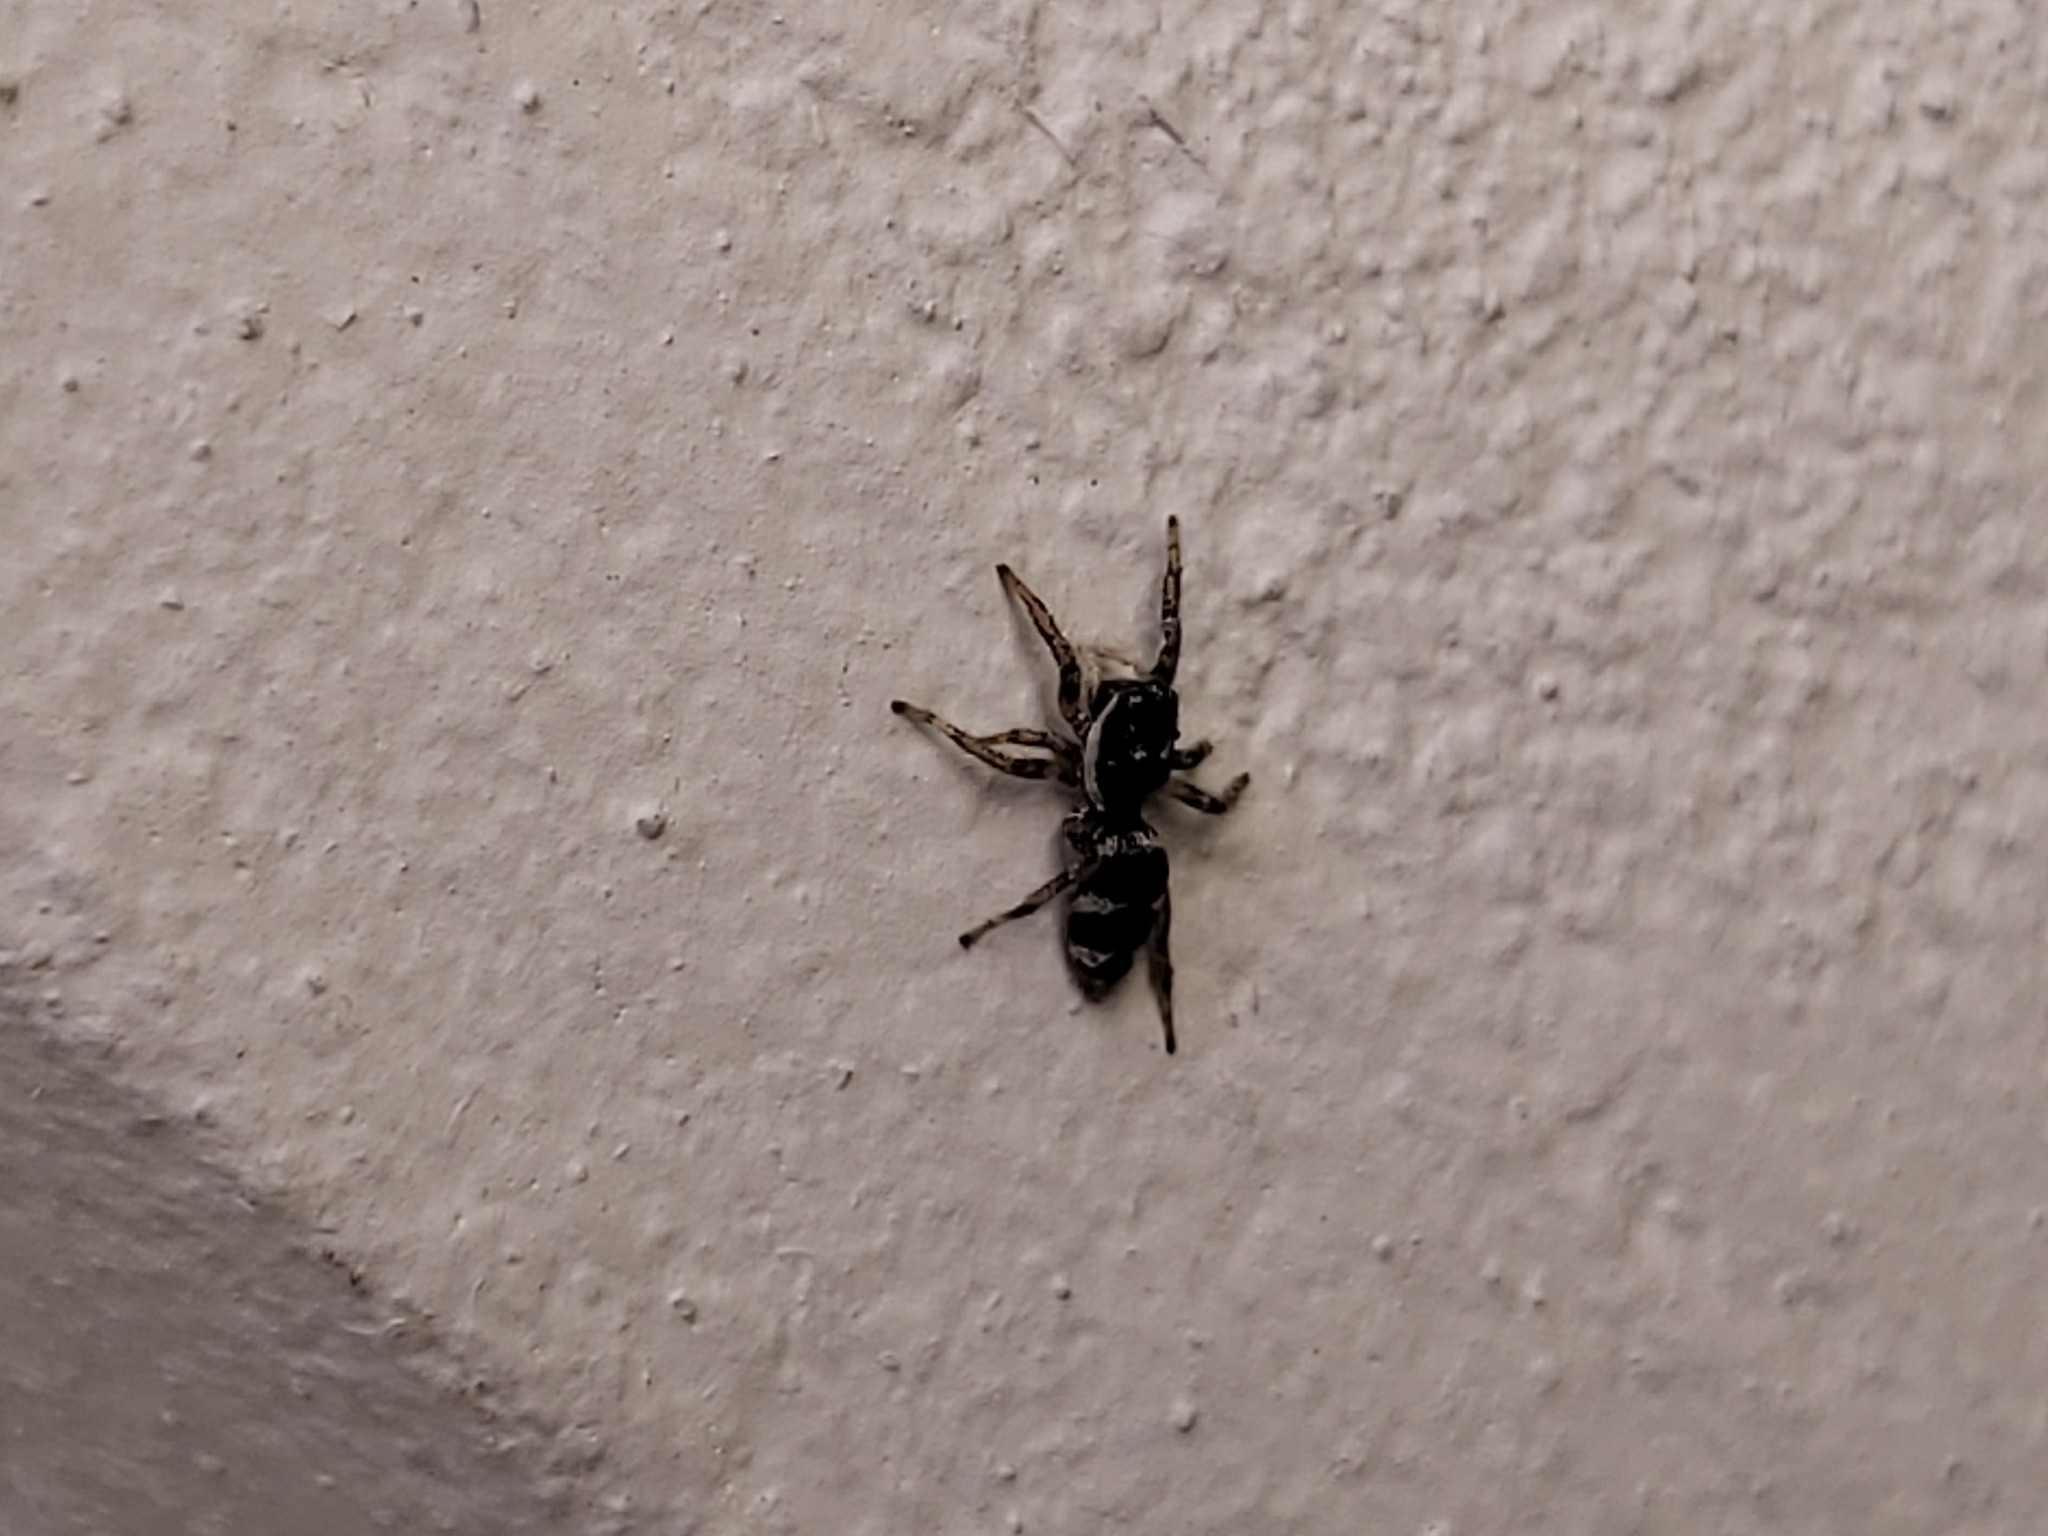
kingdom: Animalia
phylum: Arthropoda
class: Arachnida
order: Araneae
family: Salticidae
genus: Salticus
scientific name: Salticus scenicus
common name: Zebra jumper
